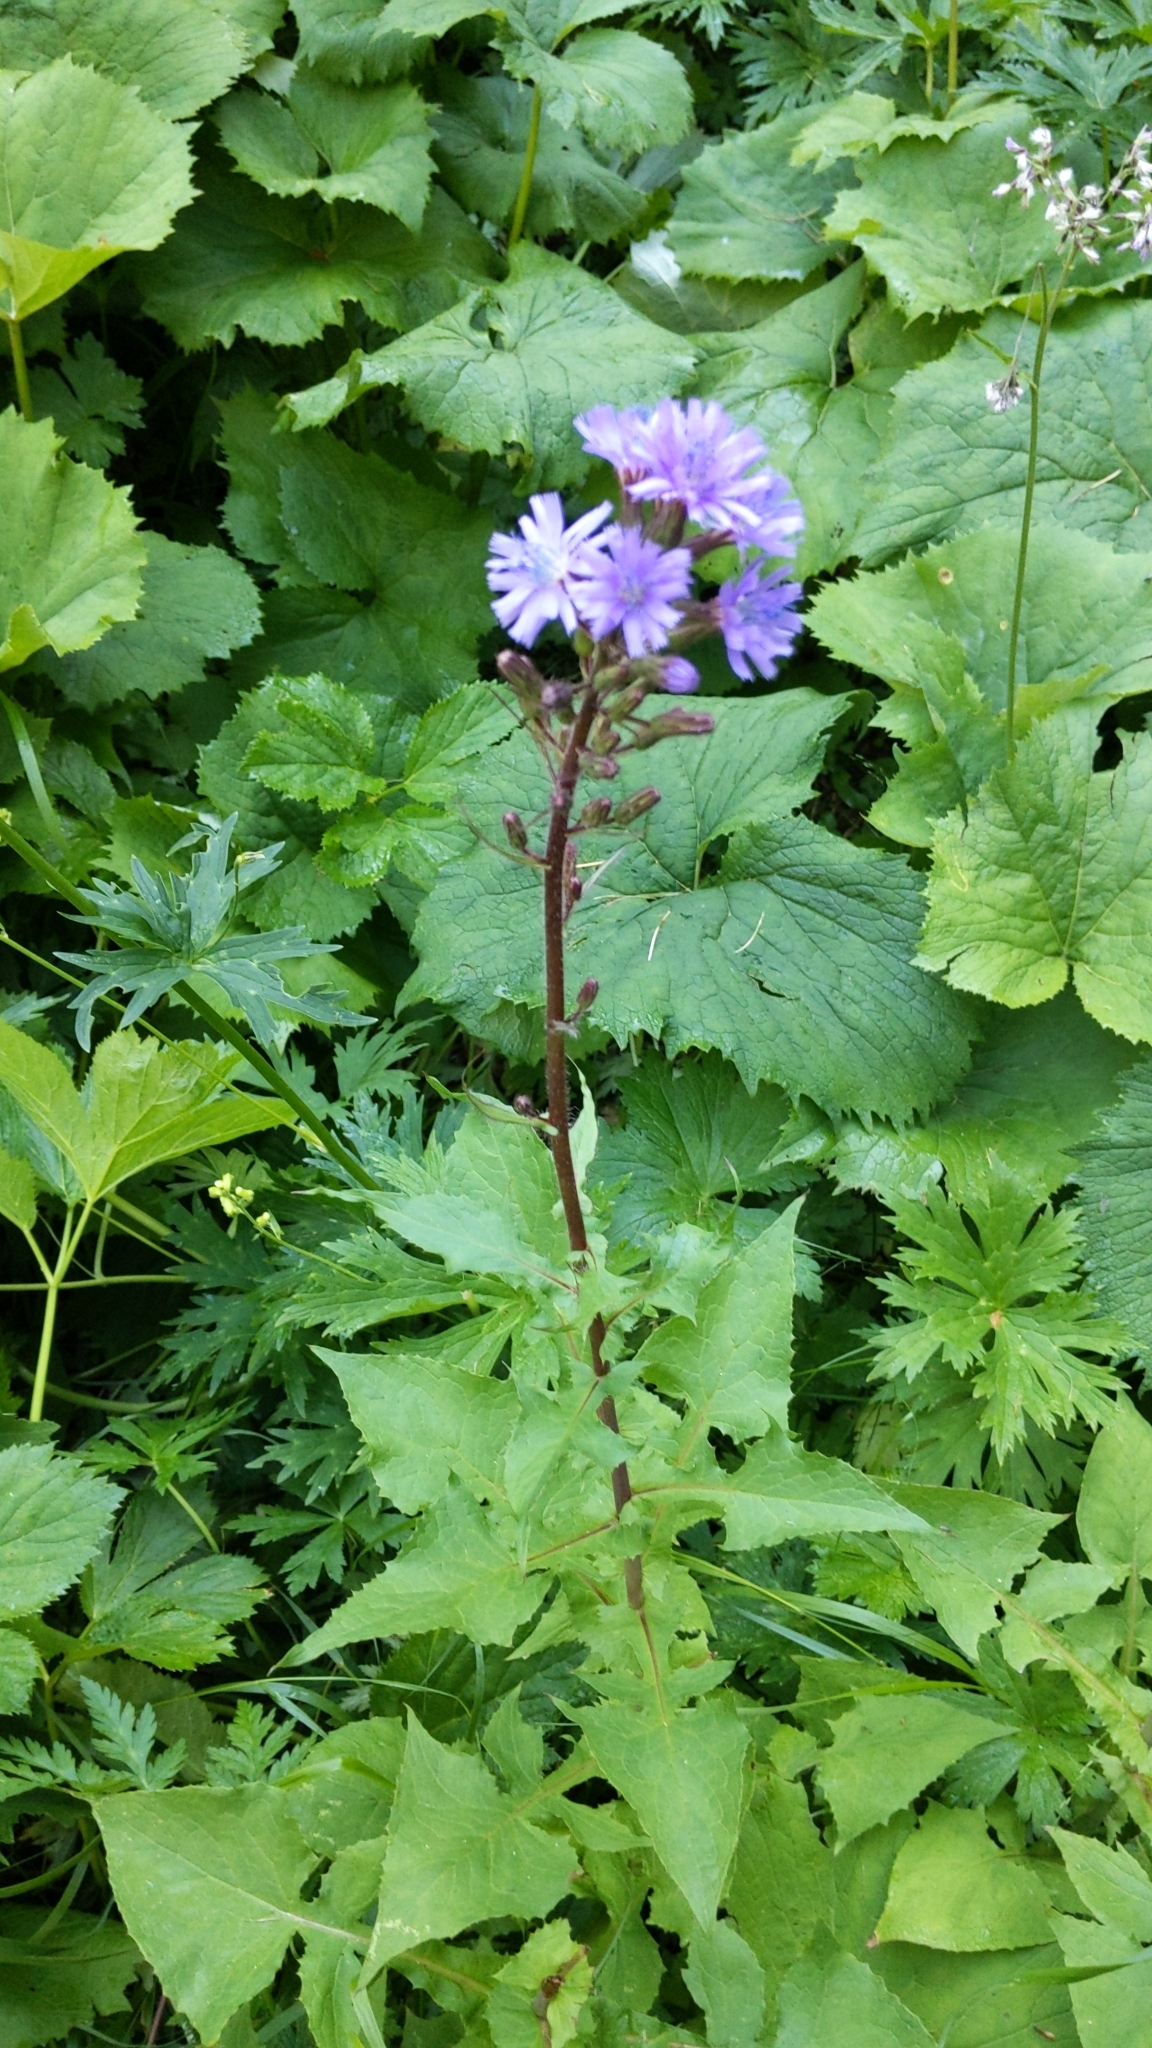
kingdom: Plantae
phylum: Tracheophyta
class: Magnoliopsida
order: Asterales
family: Asteraceae
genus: Cicerbita
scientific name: Cicerbita alpina
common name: Alpine blue-sow-thistle
